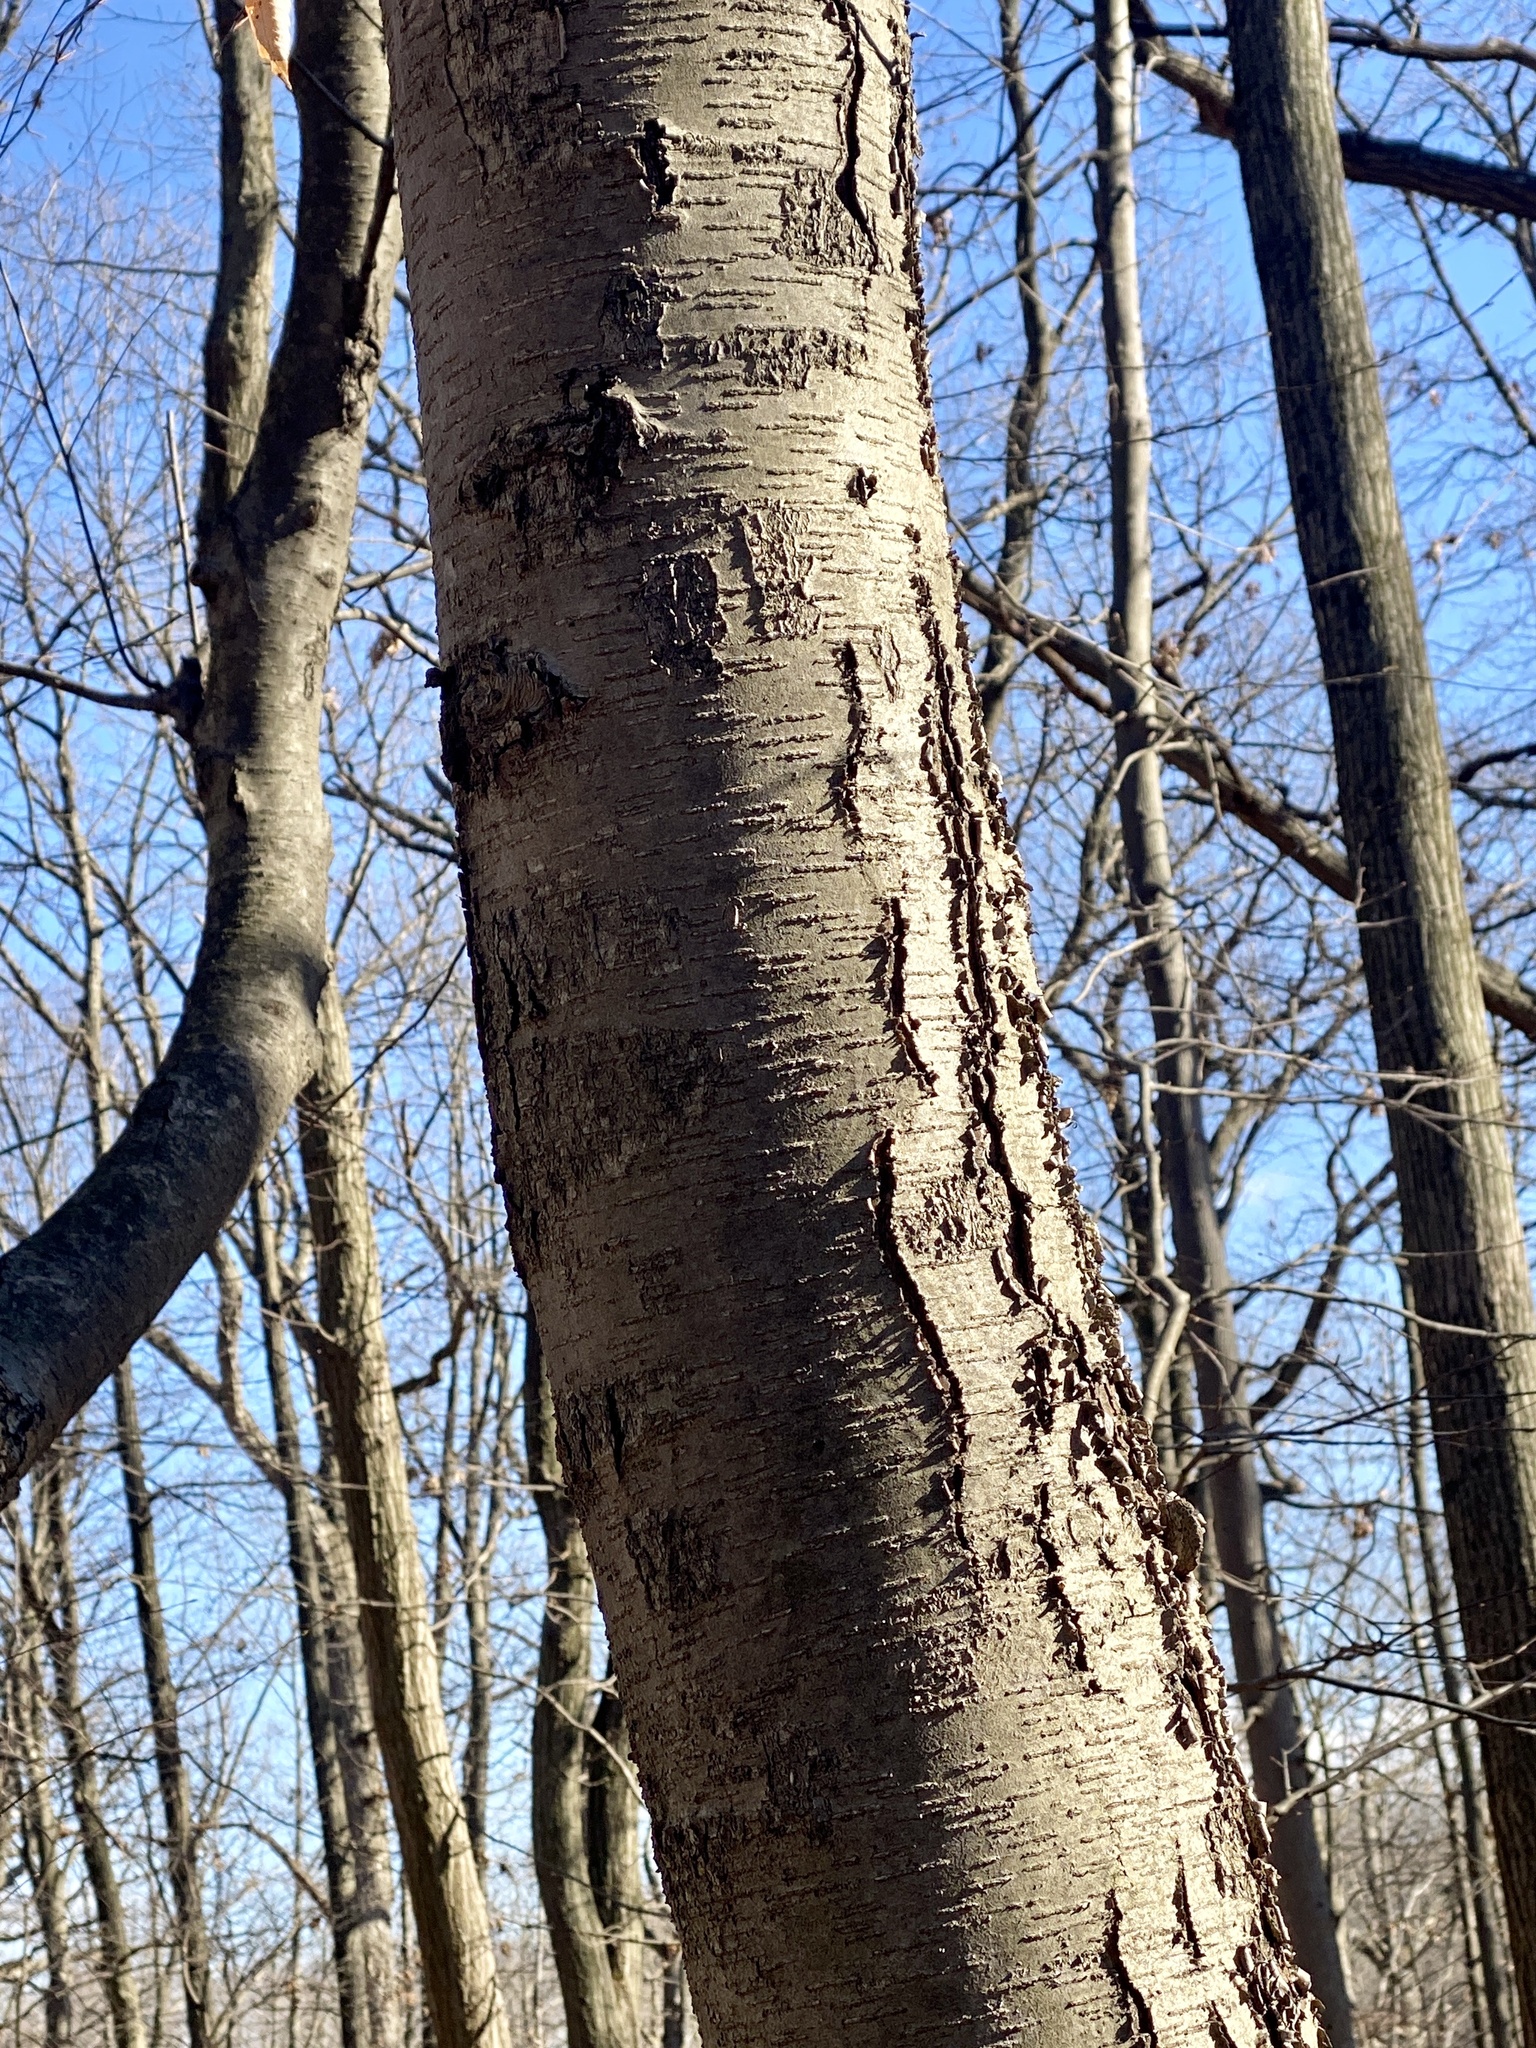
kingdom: Plantae
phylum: Tracheophyta
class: Magnoliopsida
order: Fagales
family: Betulaceae
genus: Betula
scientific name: Betula lenta
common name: Black birch
